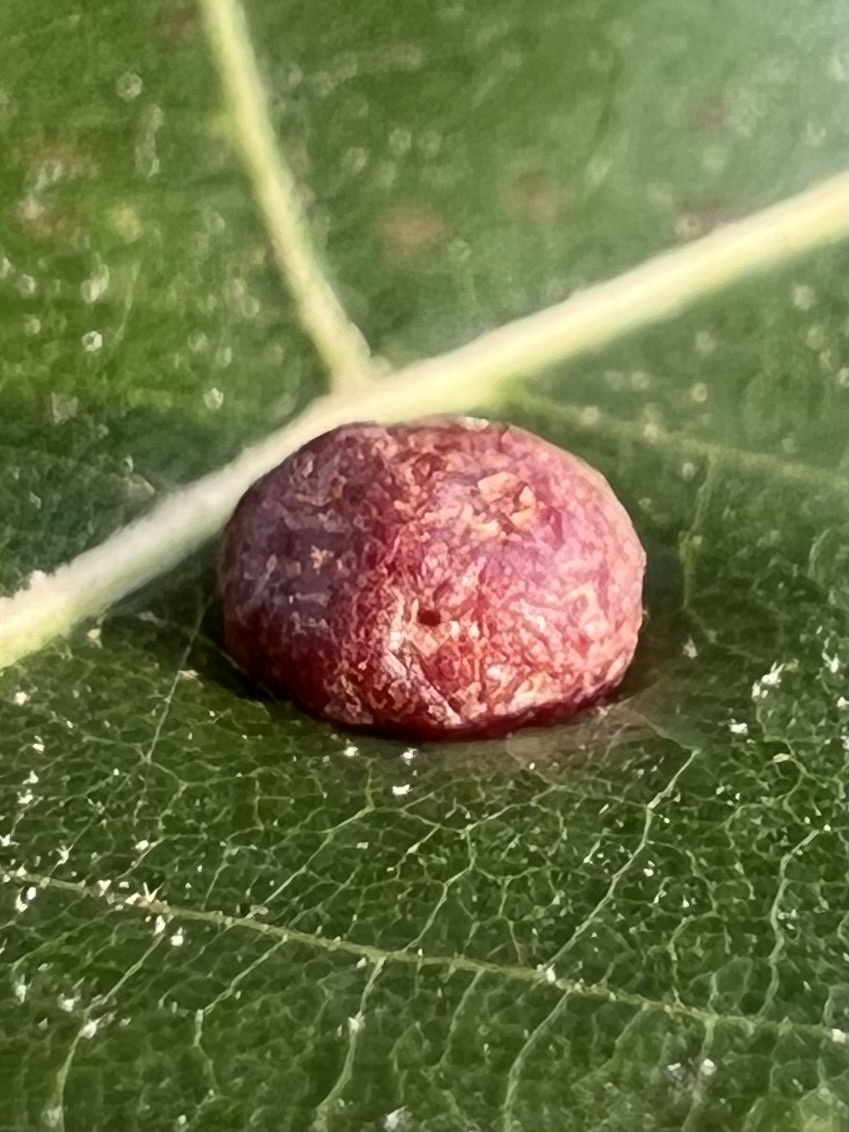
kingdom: Animalia
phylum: Arthropoda
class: Insecta
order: Diptera
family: Cecidomyiidae
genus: Polystepha
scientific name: Polystepha pilulae
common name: Oak leaf gall midge
